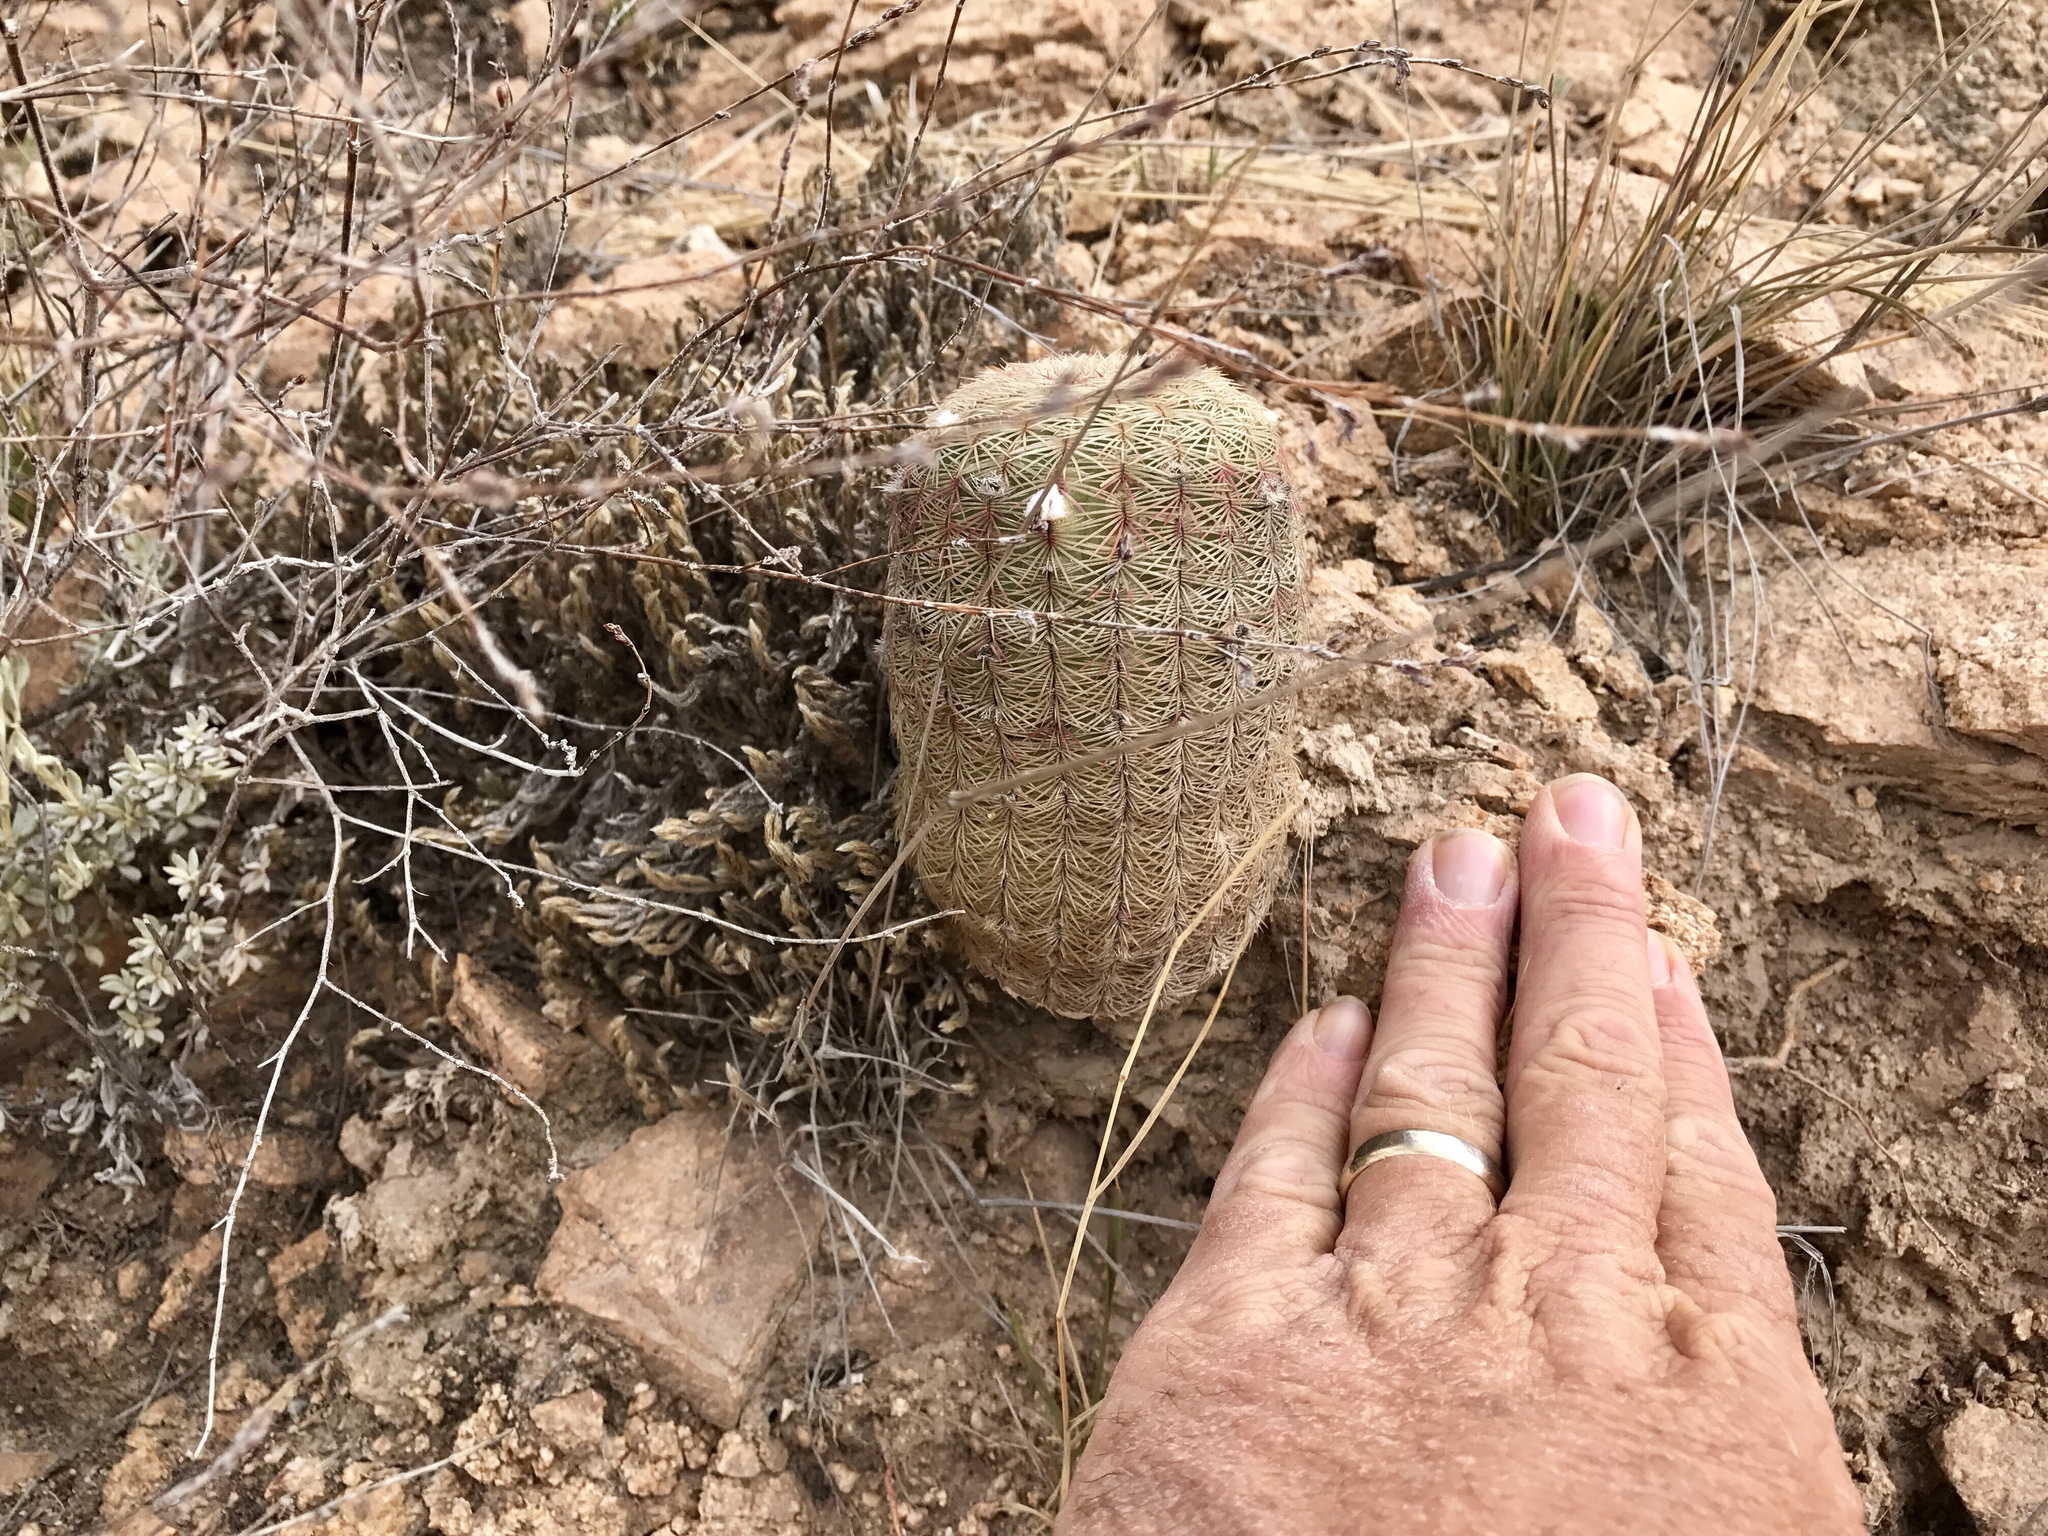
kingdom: Plantae
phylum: Tracheophyta
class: Magnoliopsida
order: Caryophyllales
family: Cactaceae
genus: Echinocereus
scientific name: Echinocereus rigidissimus
